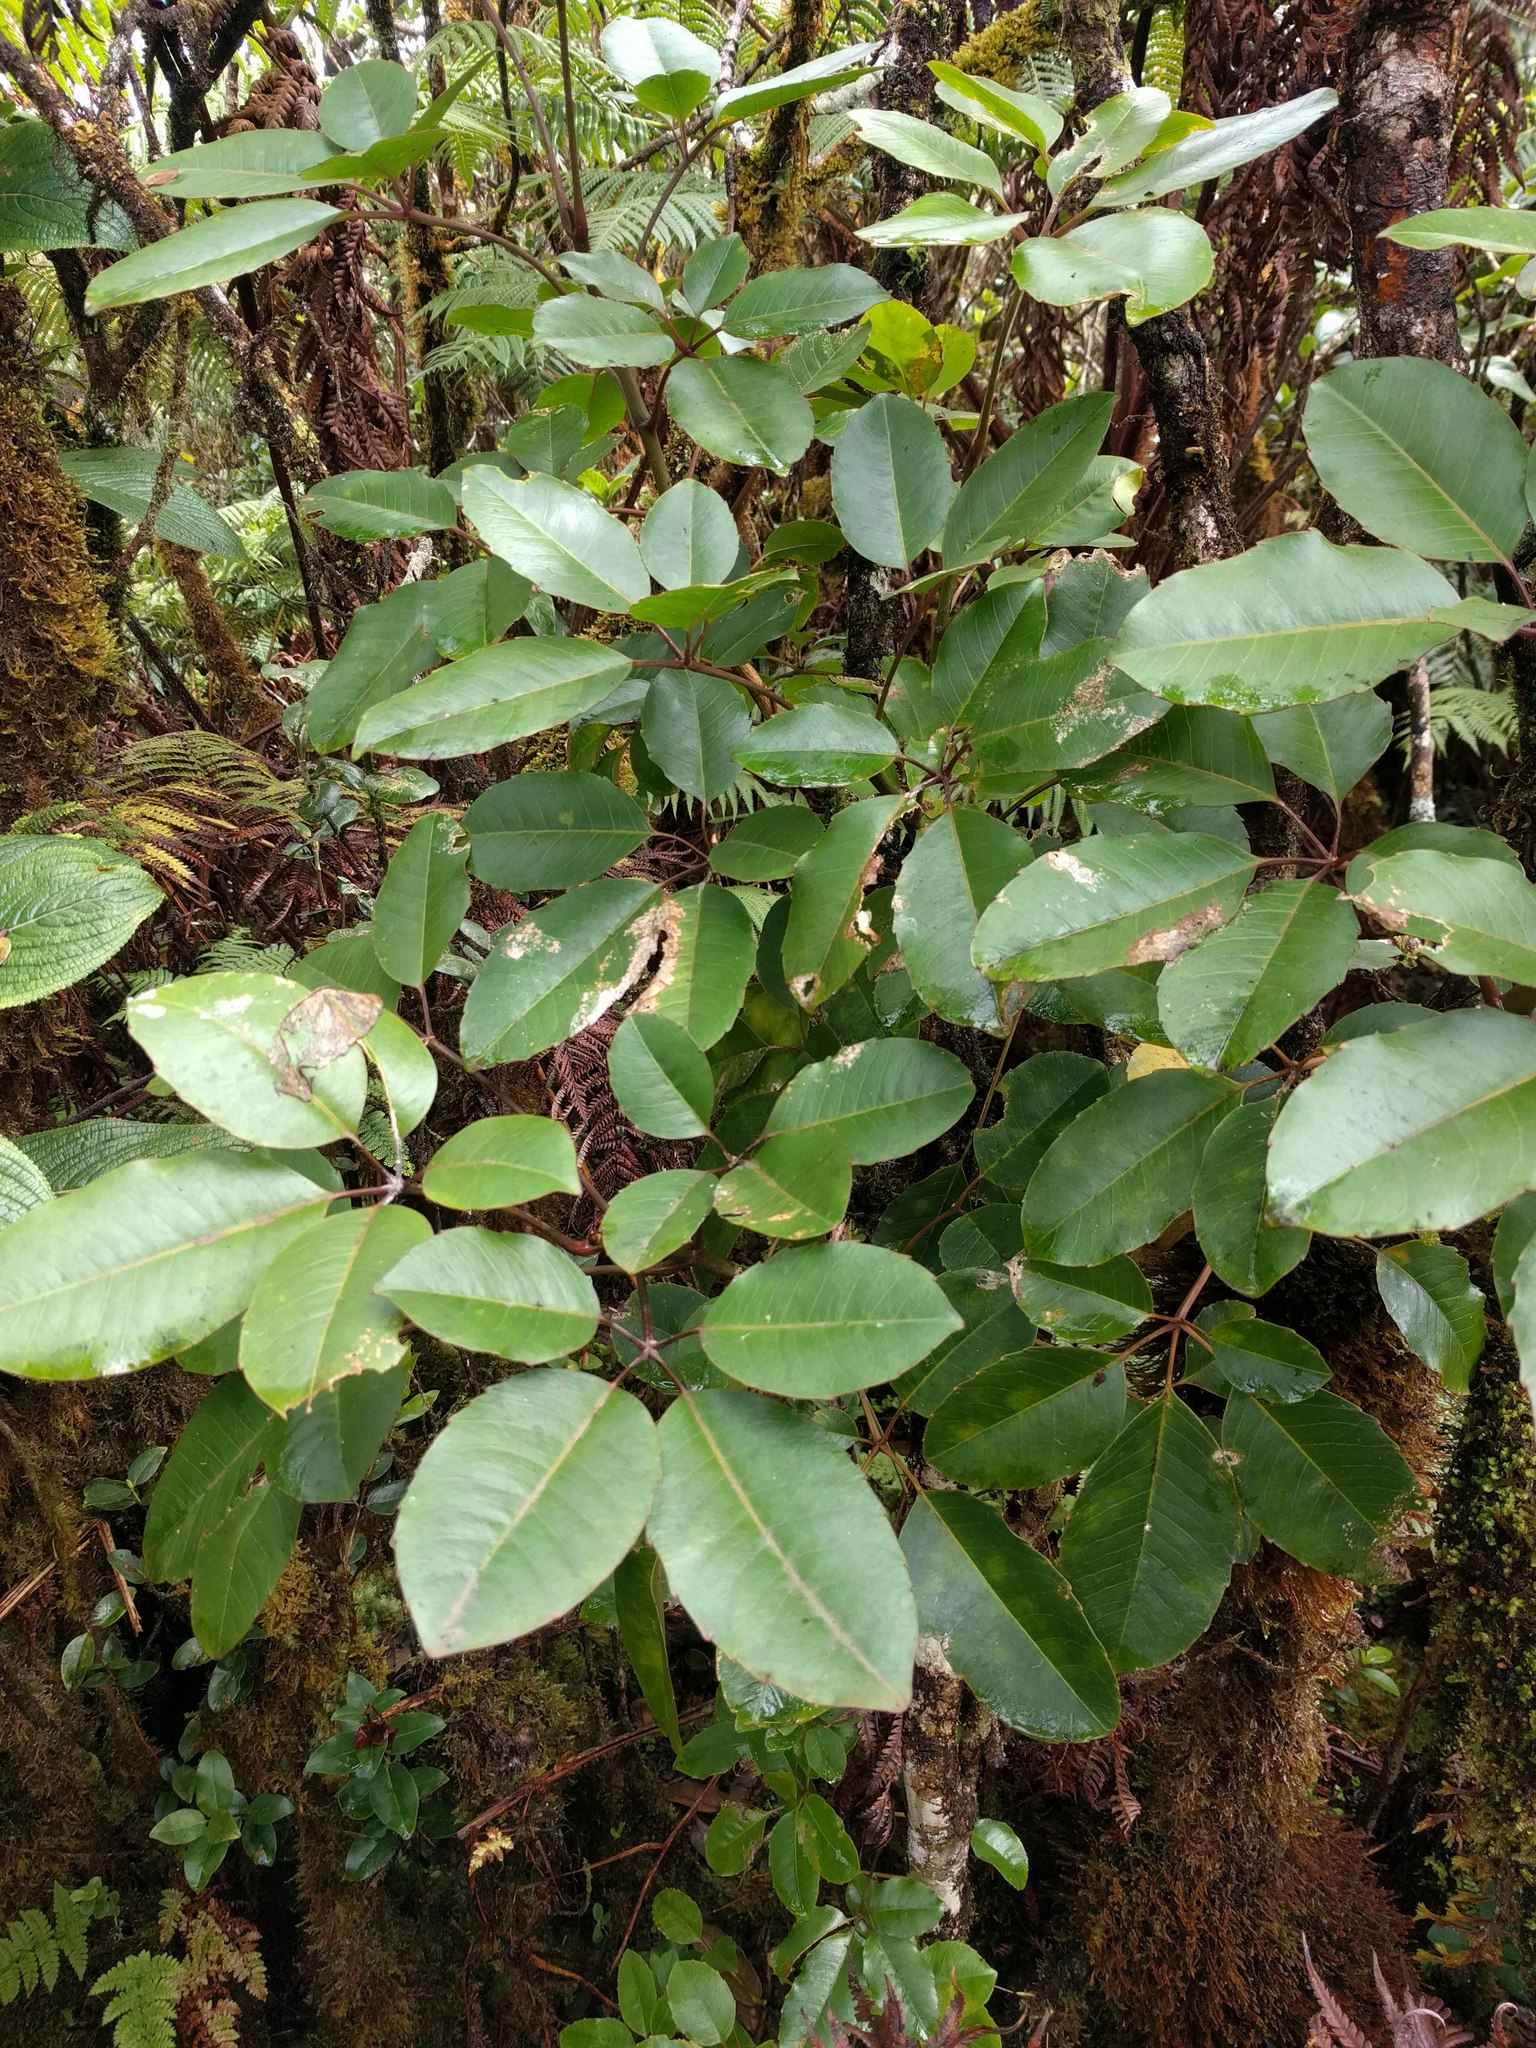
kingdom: Plantae
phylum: Tracheophyta
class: Magnoliopsida
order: Apiales
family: Araliaceae
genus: Cheirodendron
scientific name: Cheirodendron trigynum
